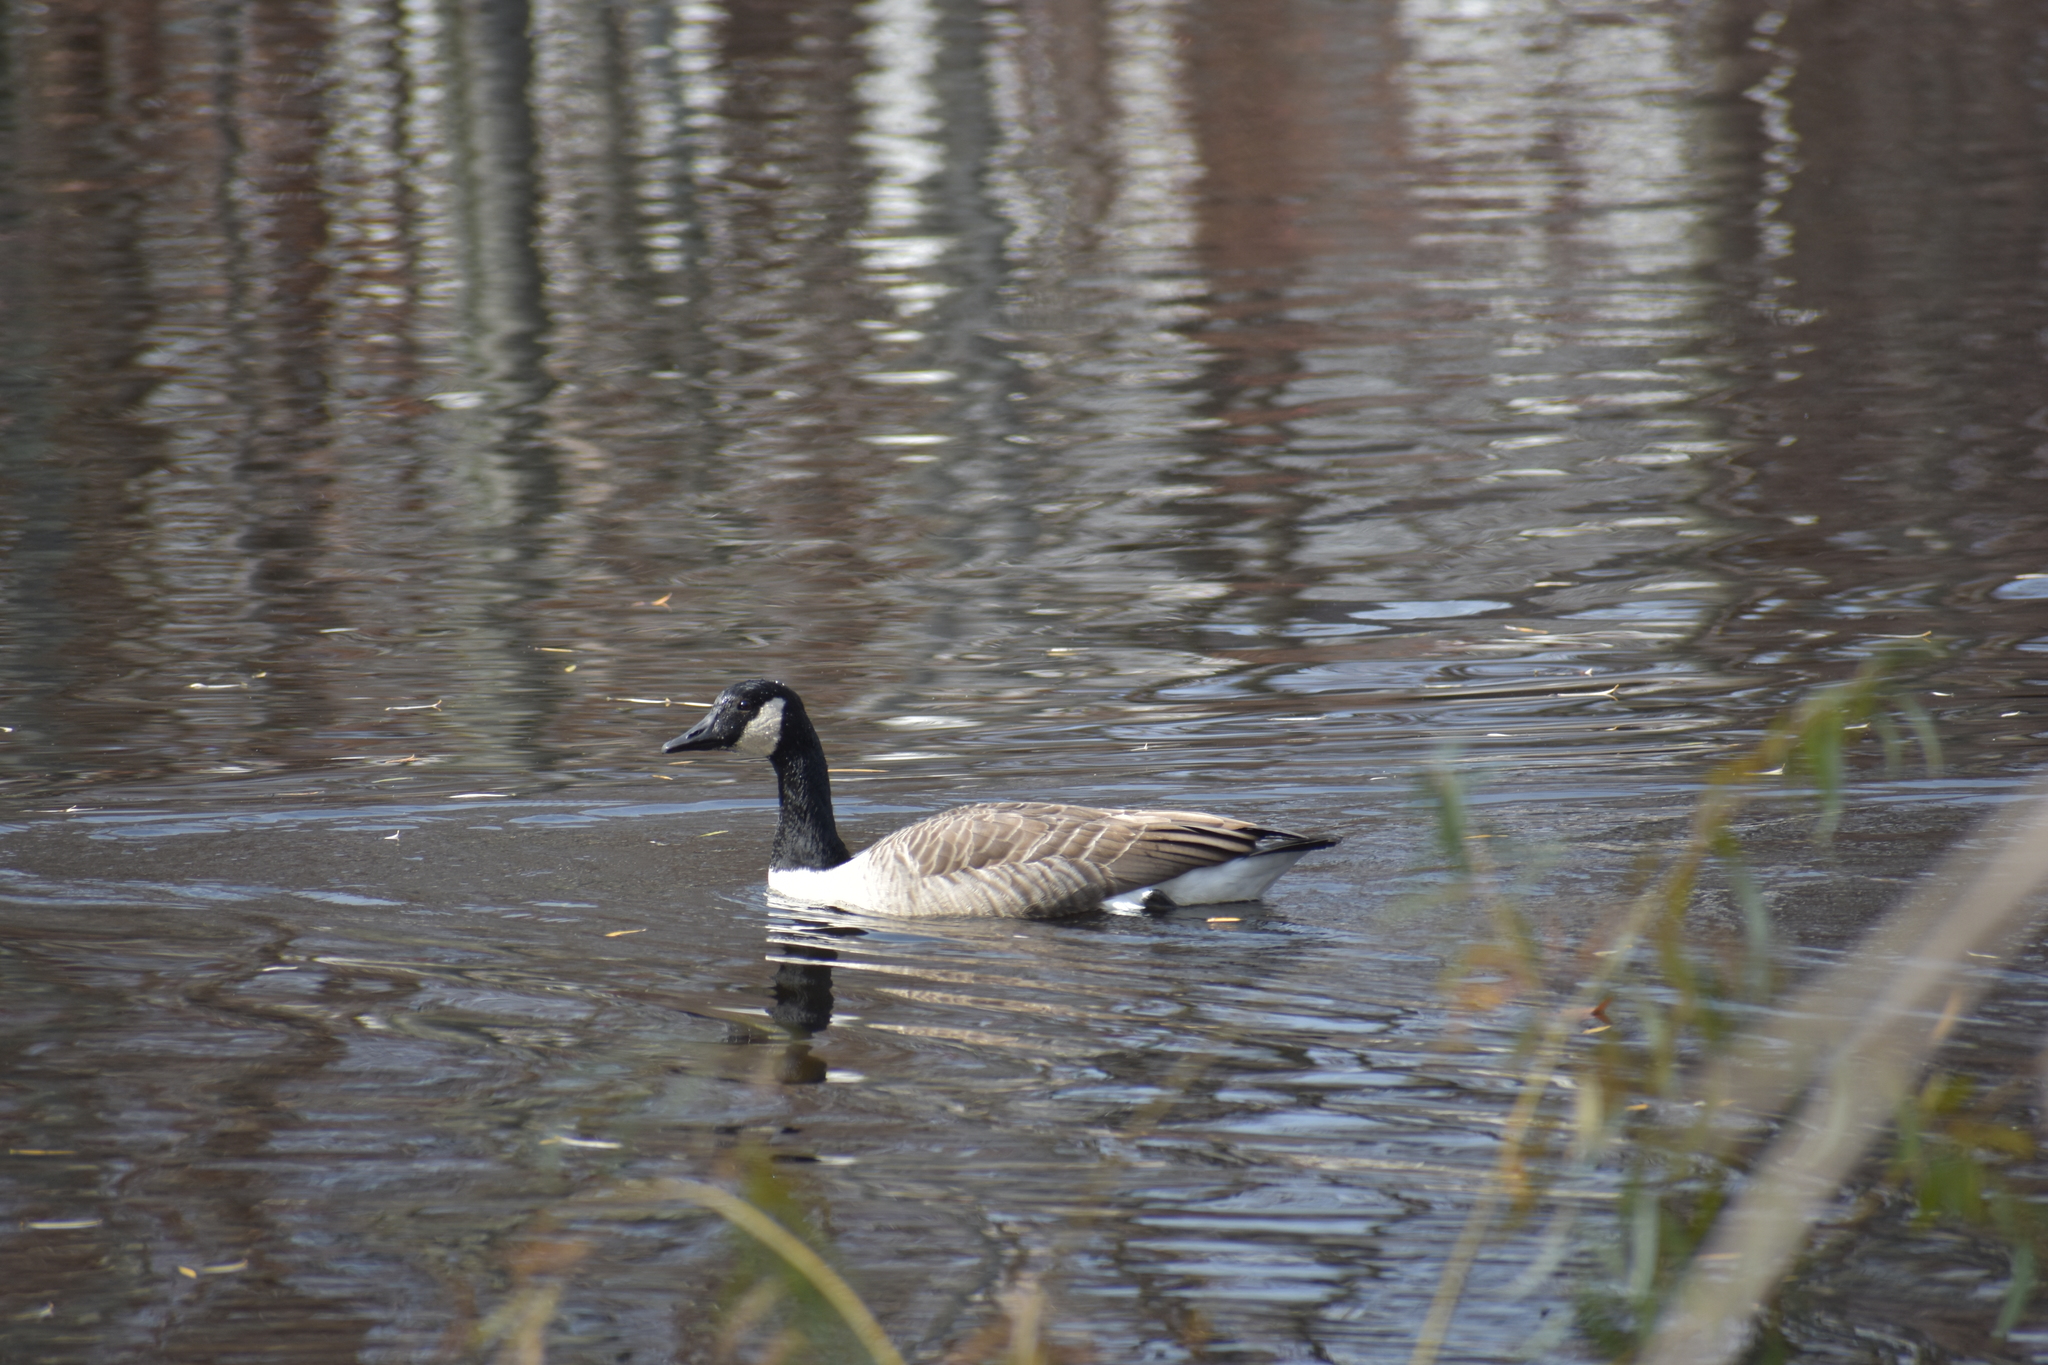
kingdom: Animalia
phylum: Chordata
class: Aves
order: Anseriformes
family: Anatidae
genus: Branta
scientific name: Branta canadensis
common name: Canada goose
